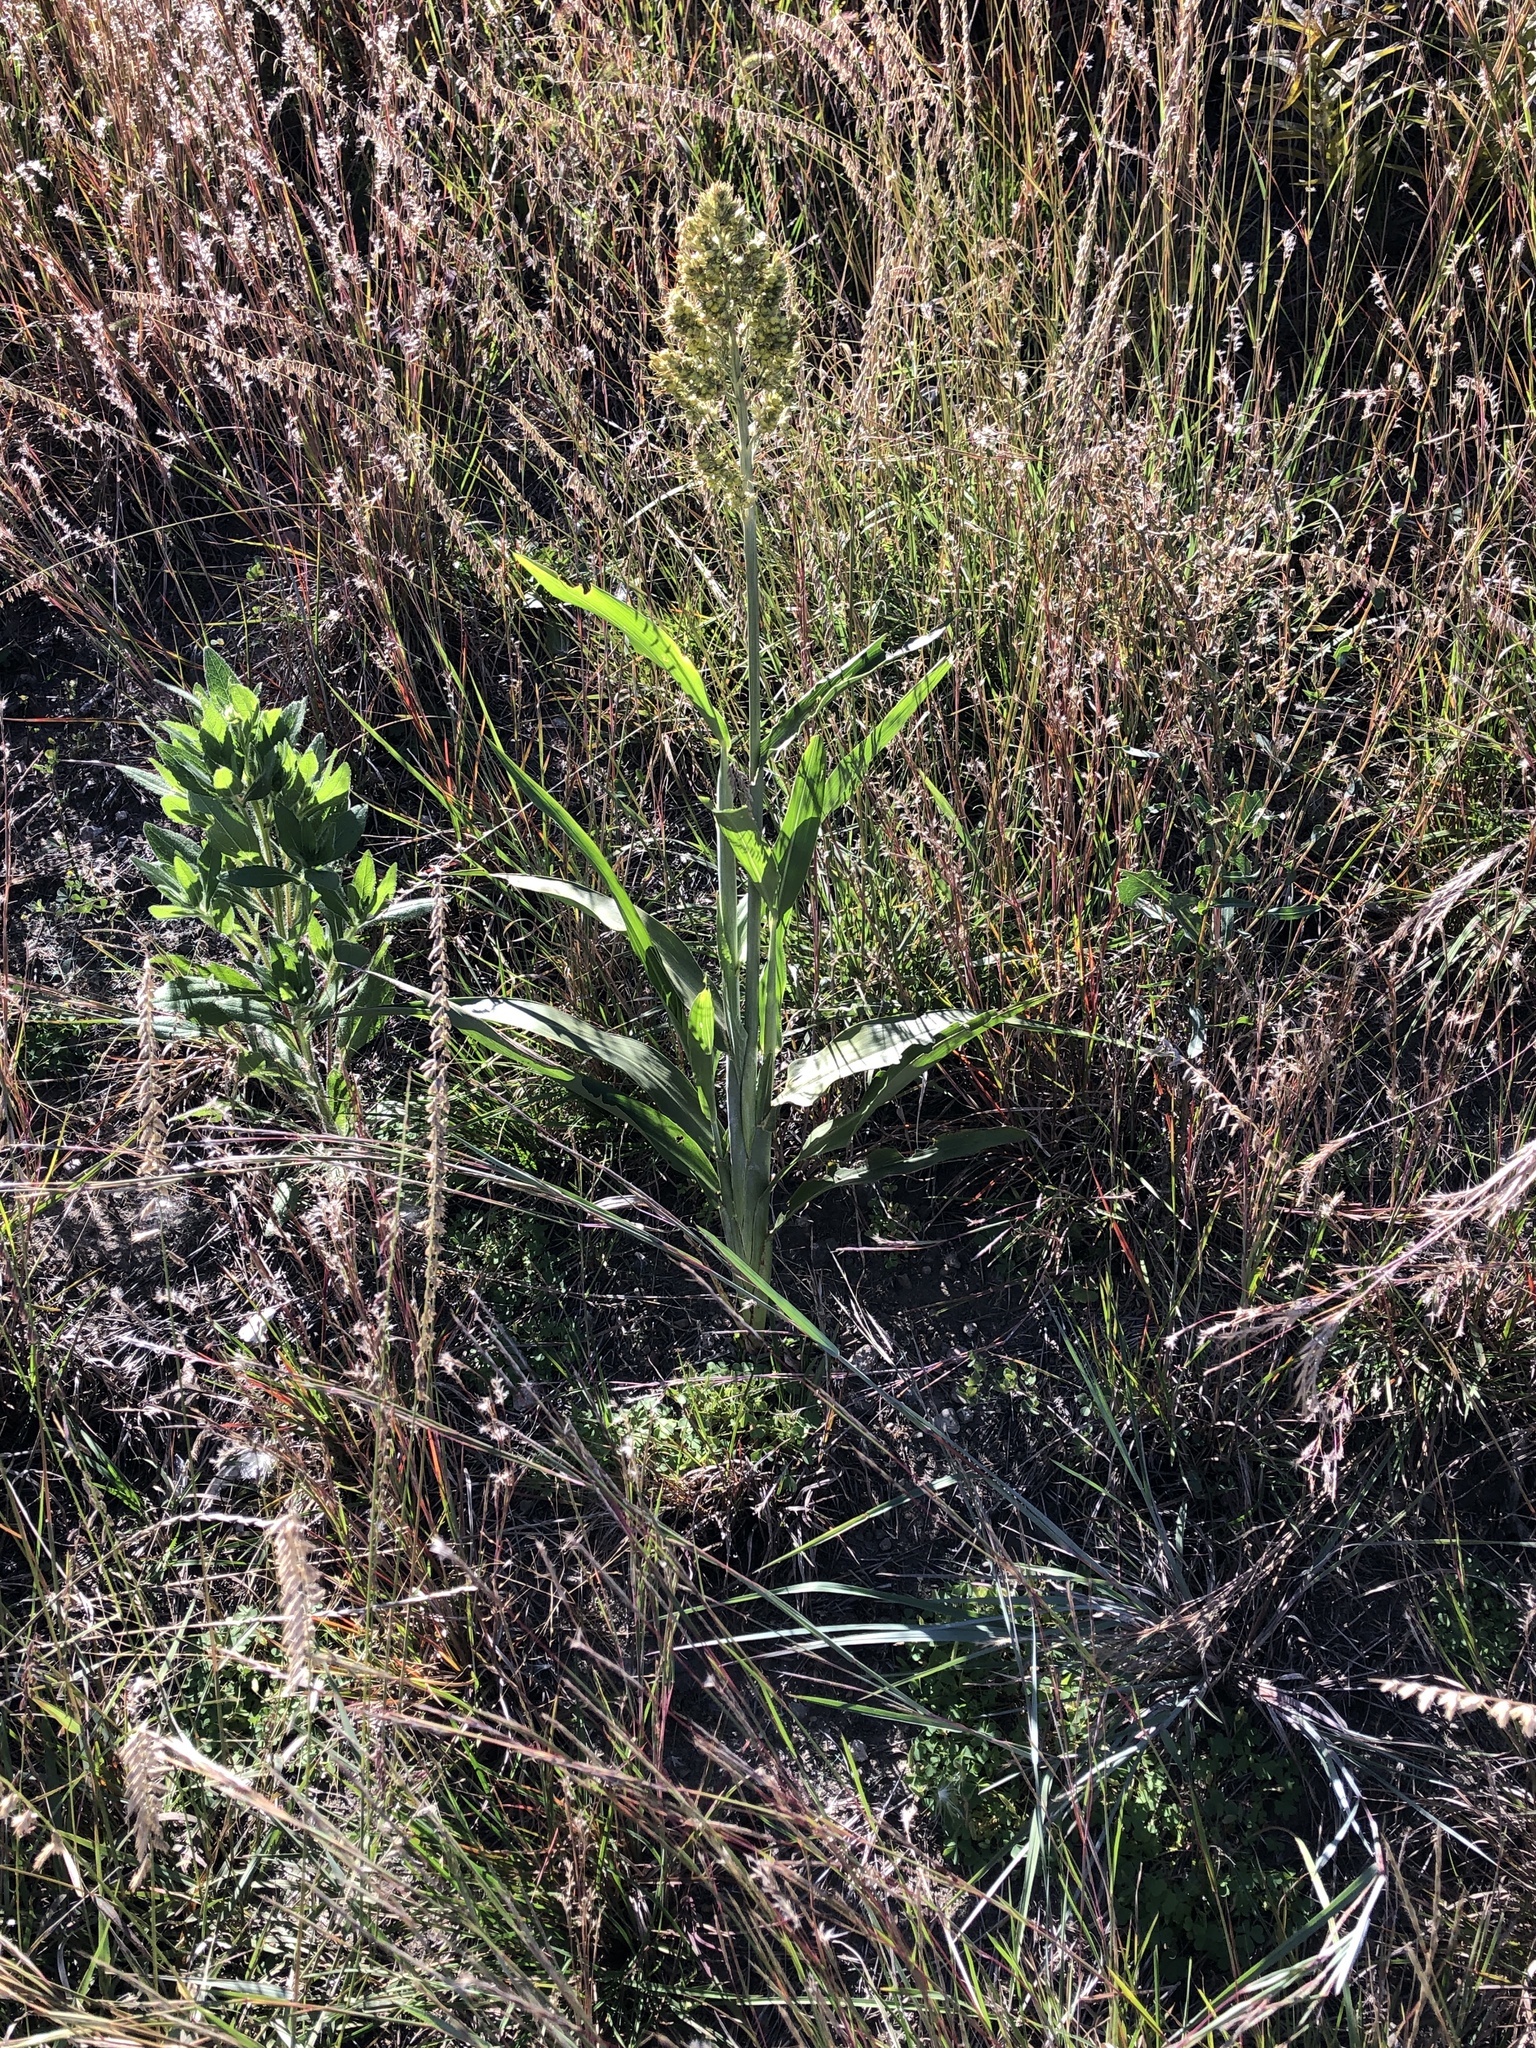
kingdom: Plantae
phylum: Tracheophyta
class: Liliopsida
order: Poales
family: Poaceae
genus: Sorghum
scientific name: Sorghum bicolor
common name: Sorghum
